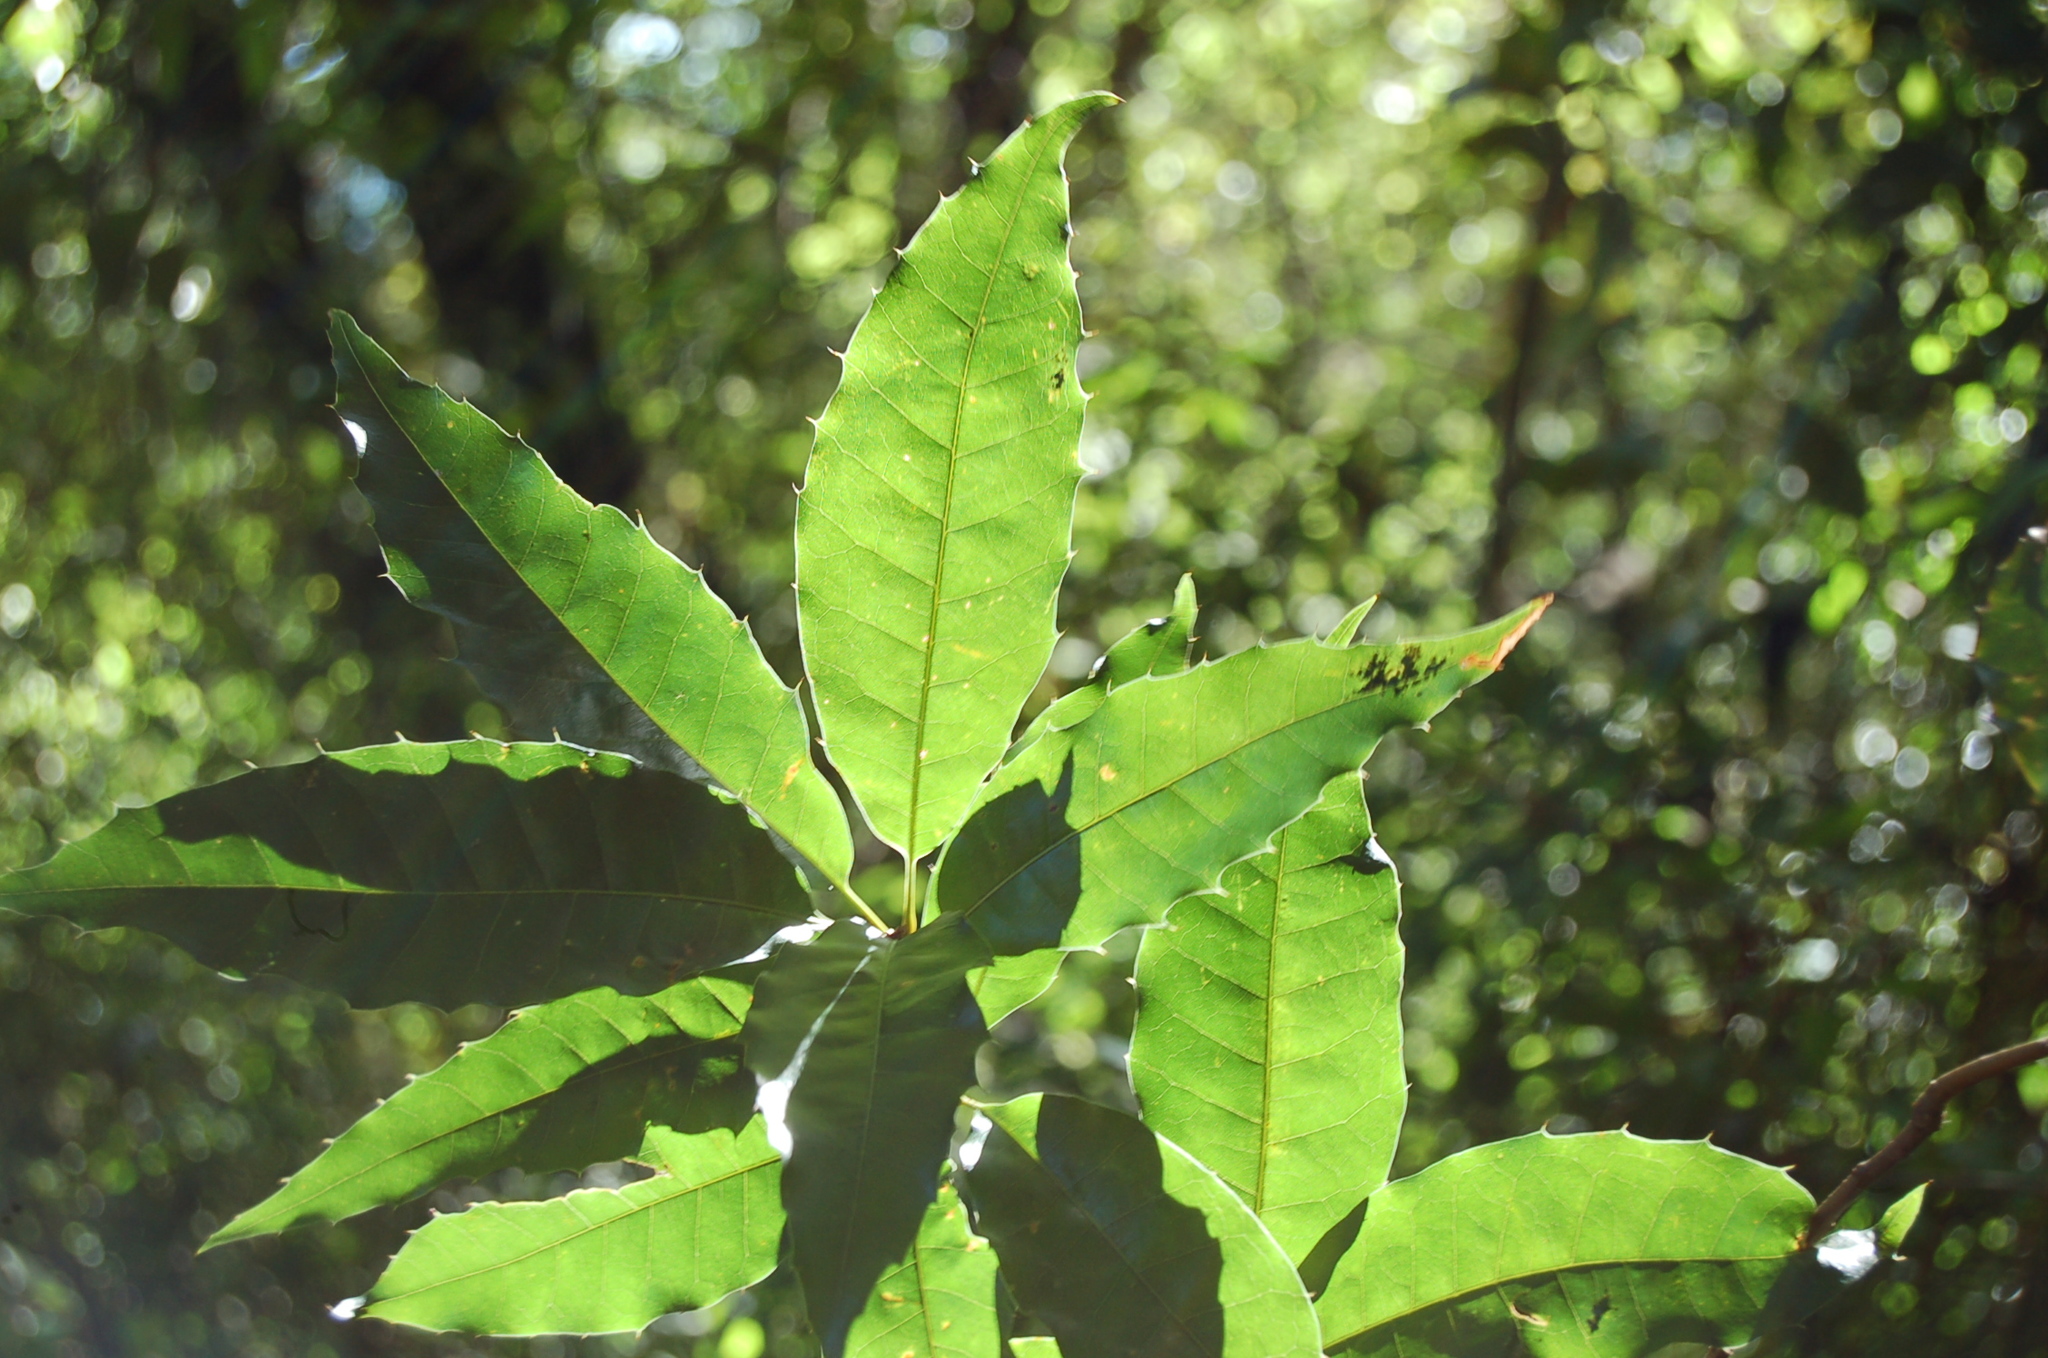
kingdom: Plantae
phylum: Tracheophyta
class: Magnoliopsida
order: Fagales
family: Fagaceae
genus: Quercus
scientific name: Quercus xalapensis
